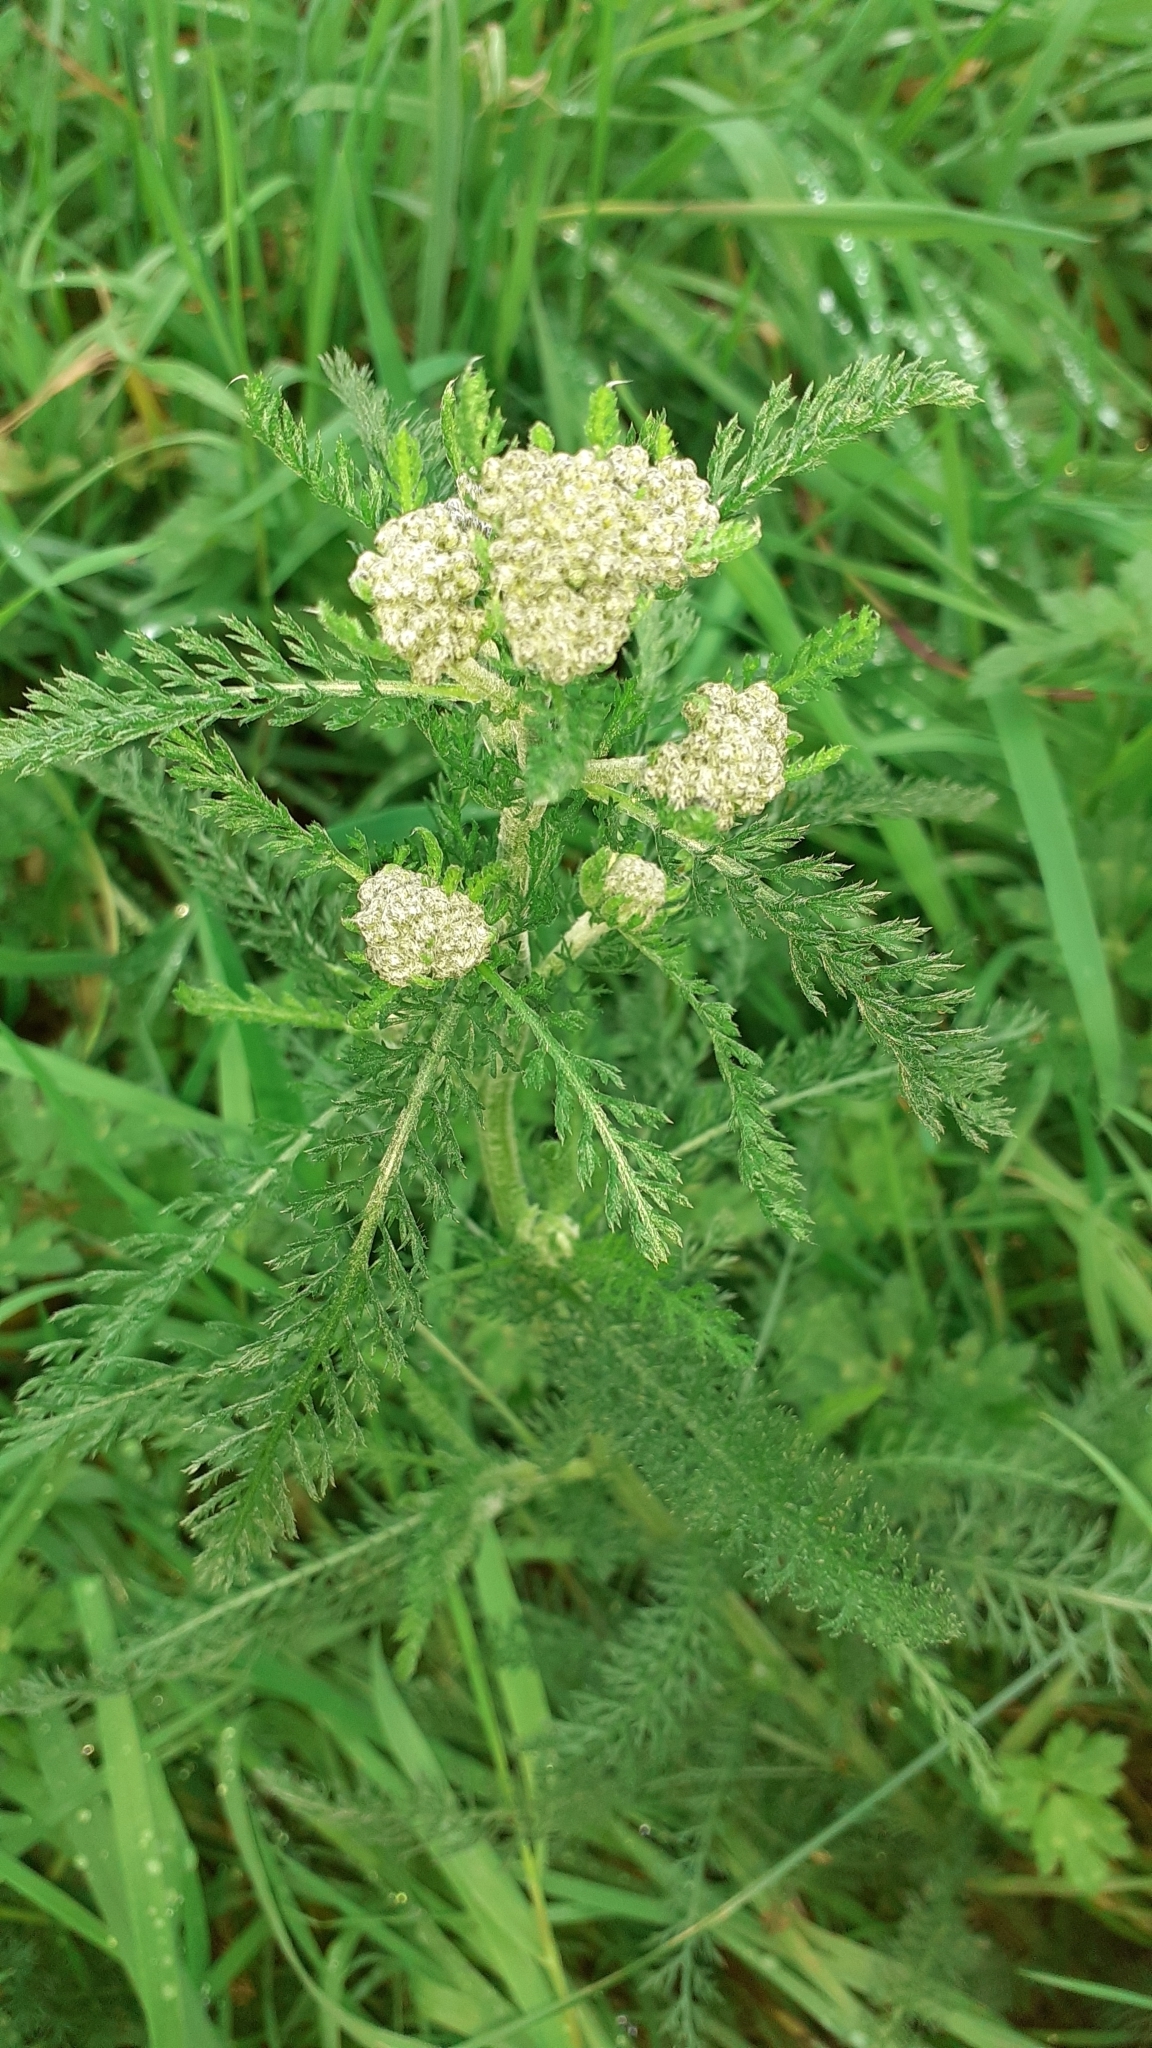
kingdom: Plantae
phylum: Tracheophyta
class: Magnoliopsida
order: Asterales
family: Asteraceae
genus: Achillea
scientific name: Achillea millefolium
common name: Yarrow
